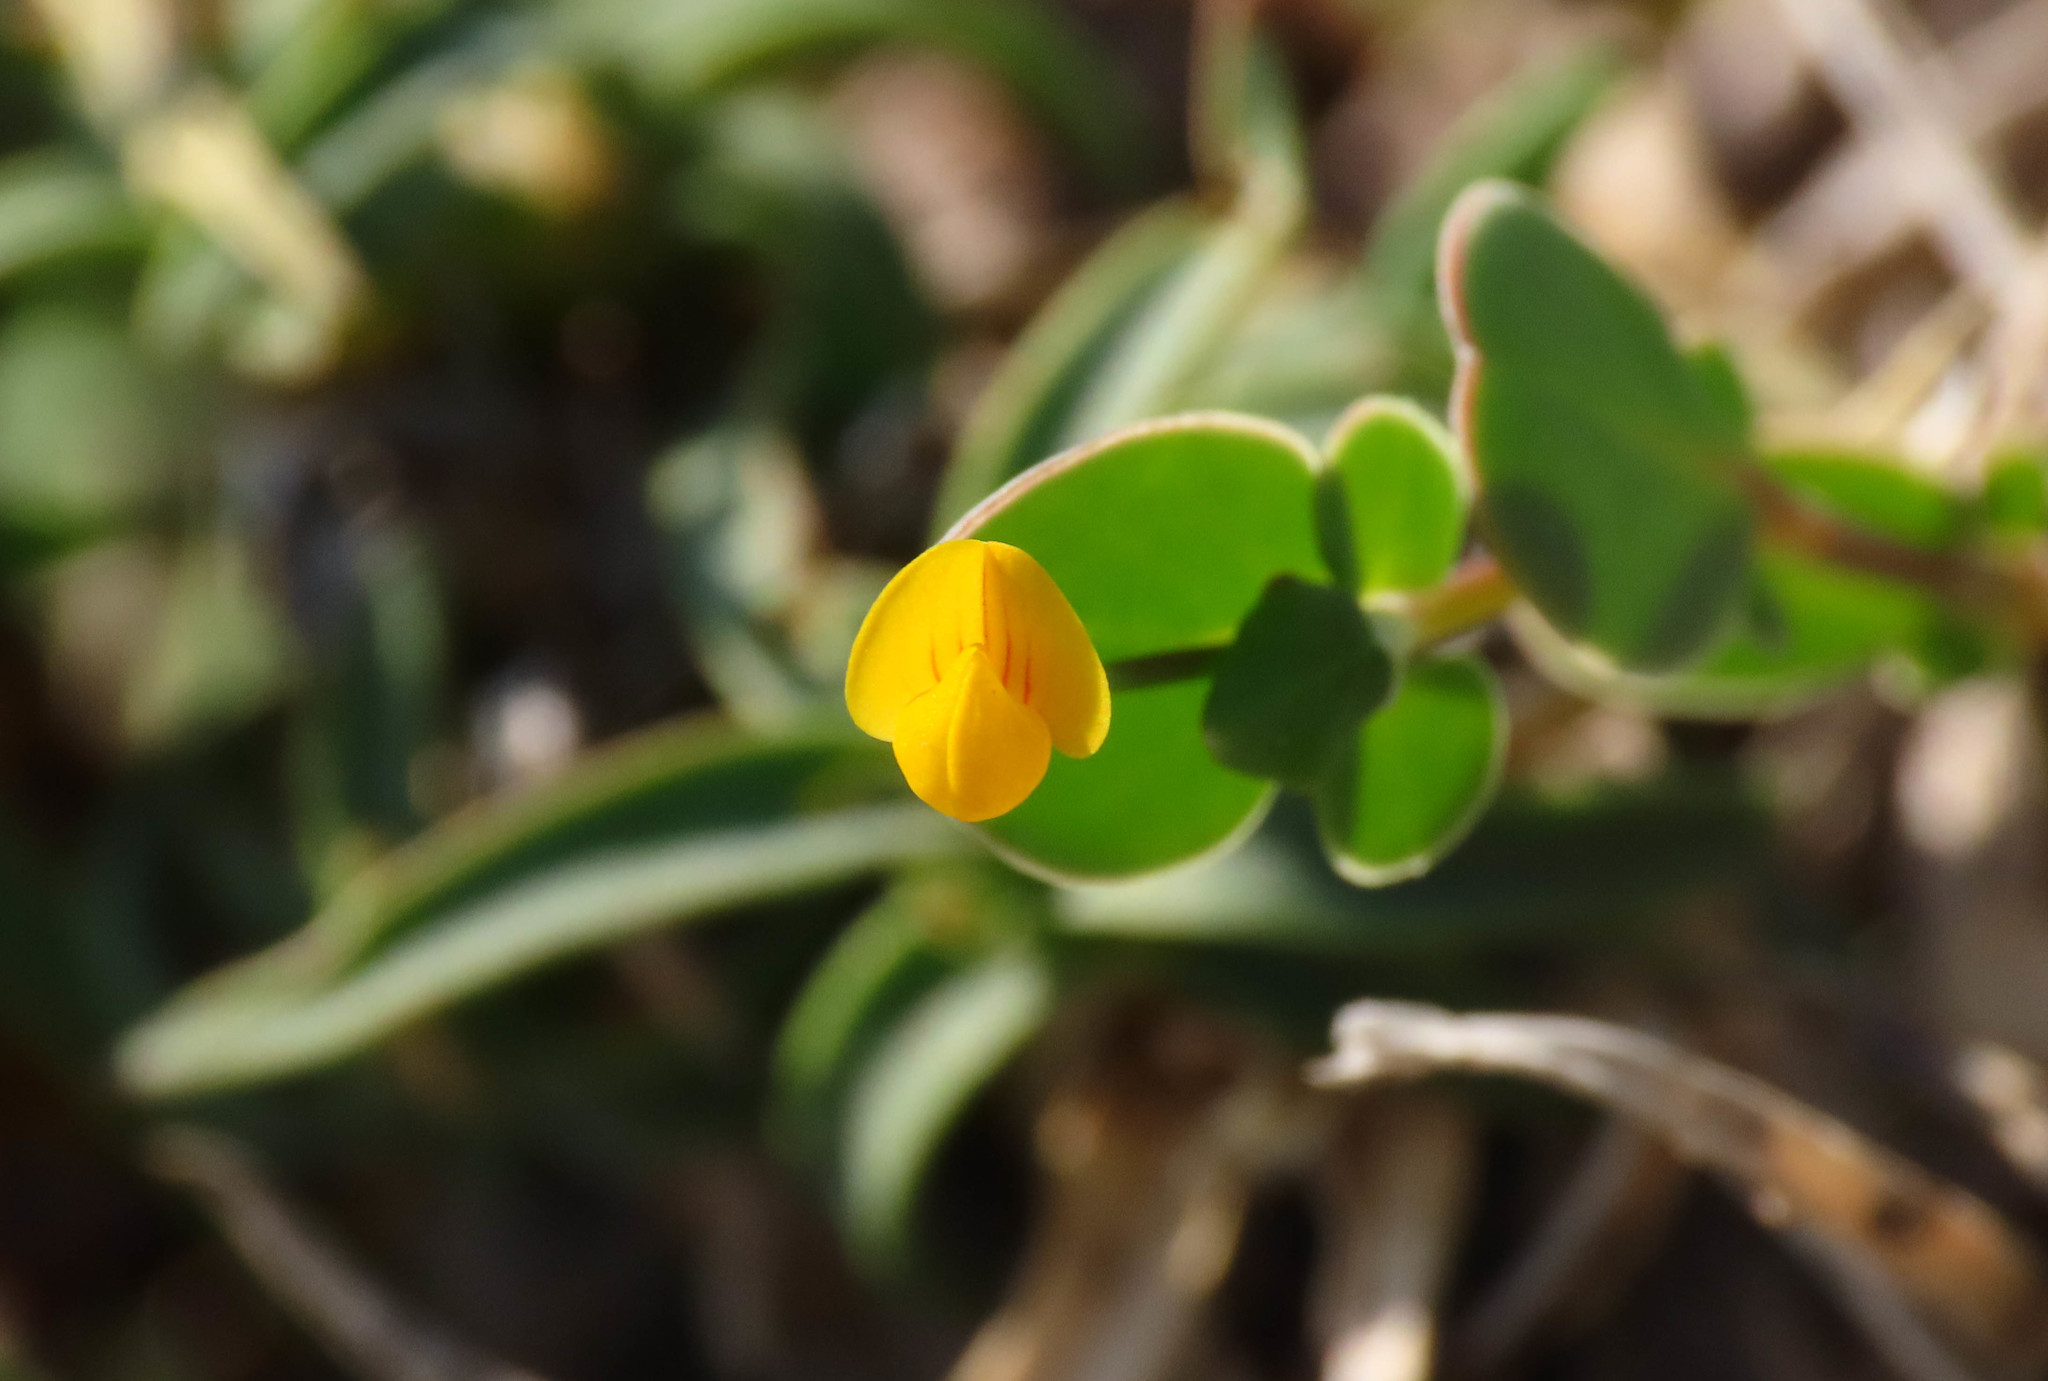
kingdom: Plantae
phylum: Tracheophyta
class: Magnoliopsida
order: Fabales
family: Fabaceae
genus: Coronilla
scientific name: Coronilla scorpioides
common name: Annual scorpion-vetch
